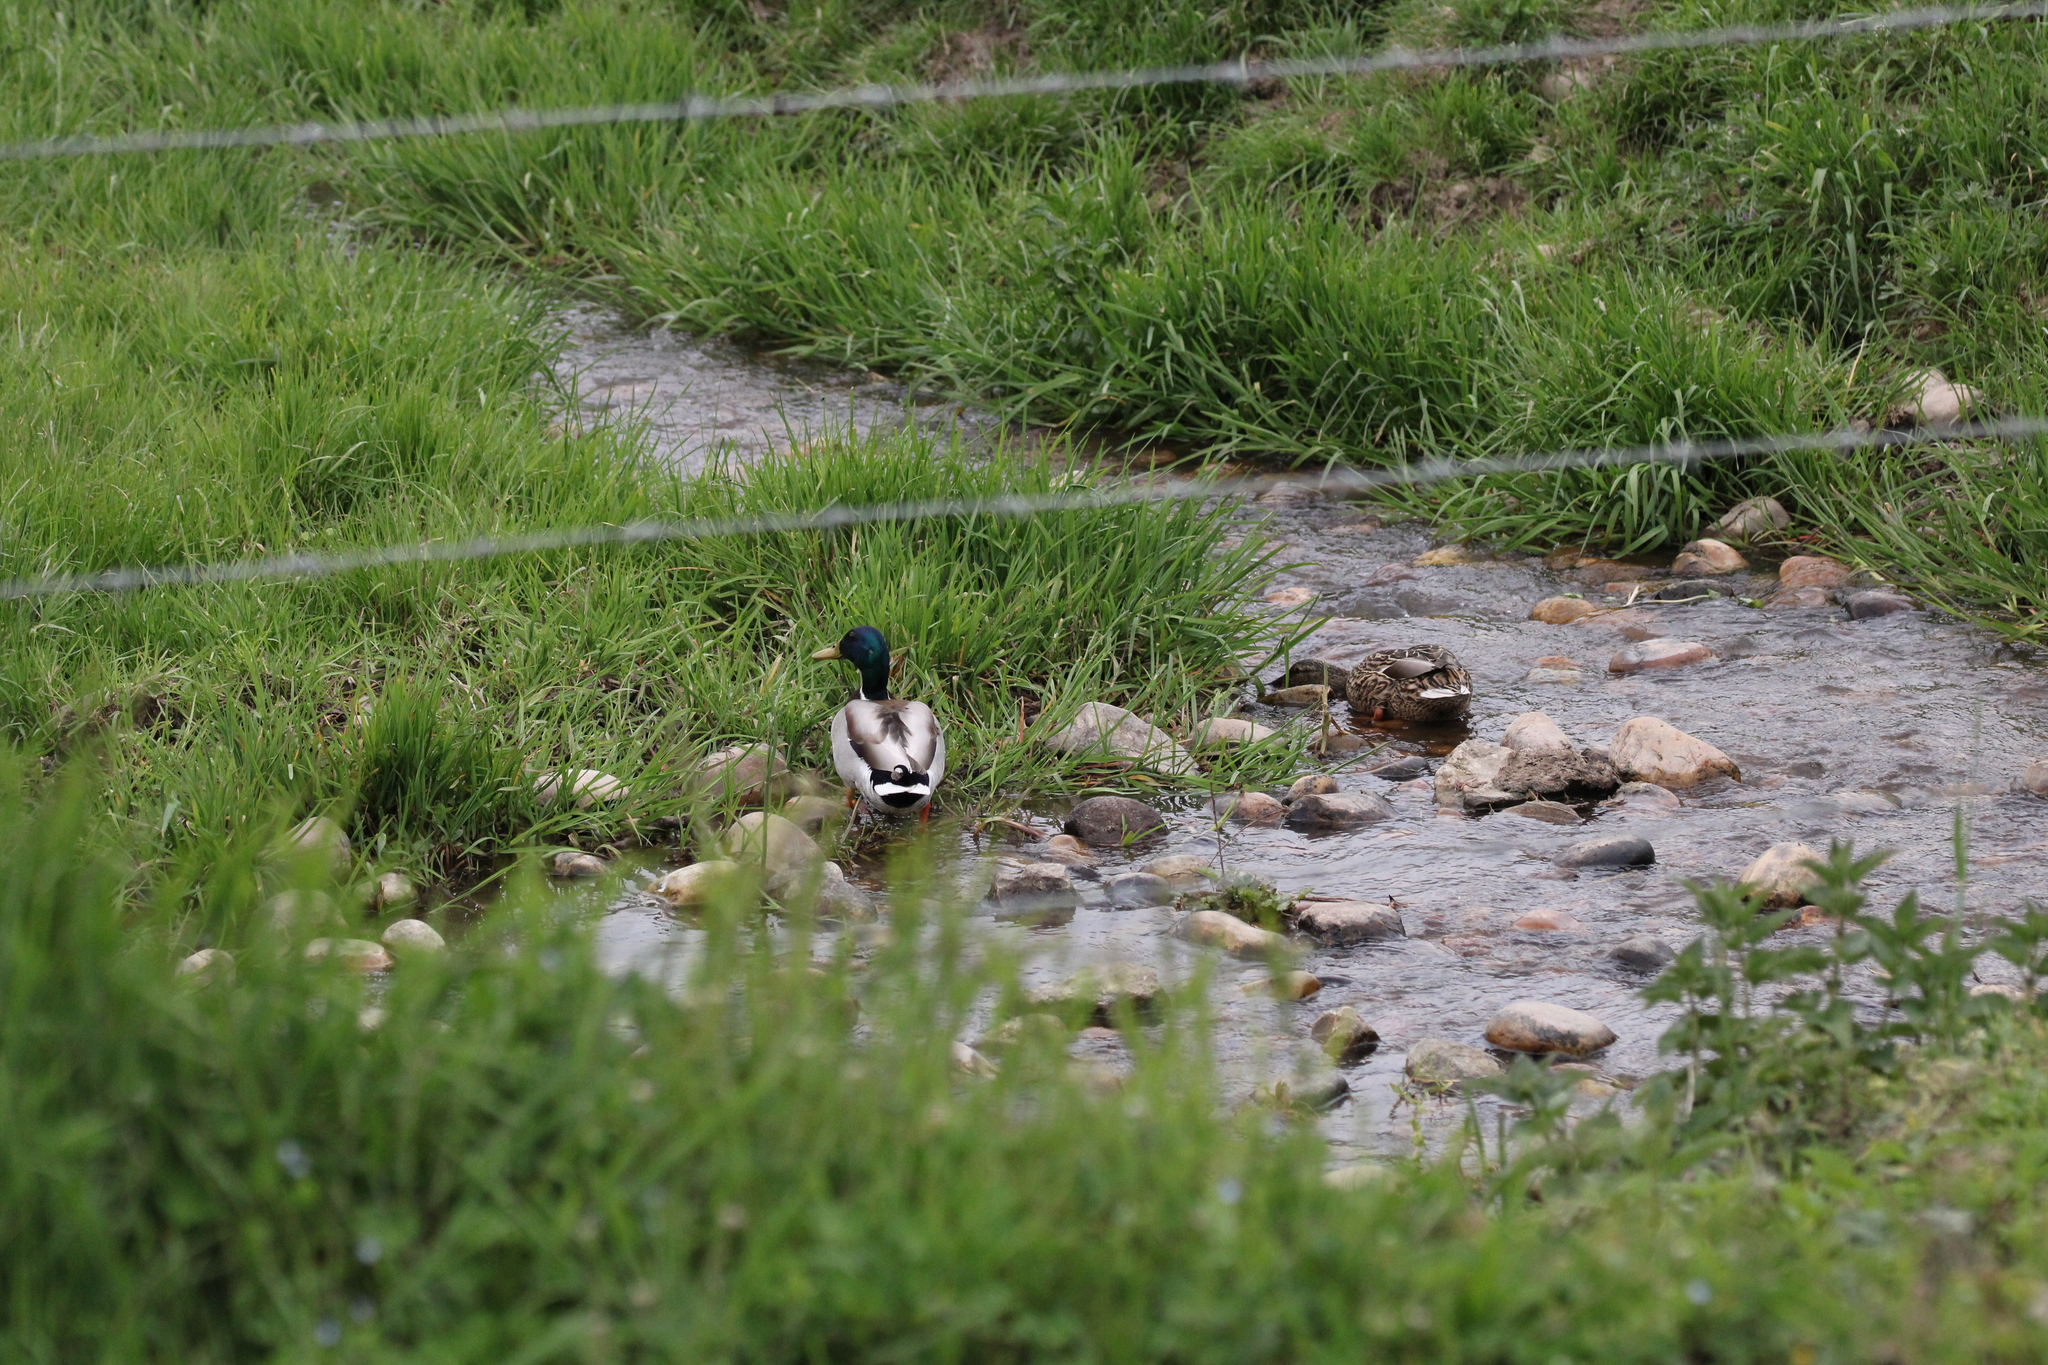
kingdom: Animalia
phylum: Chordata
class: Aves
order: Anseriformes
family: Anatidae
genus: Anas
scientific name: Anas platyrhynchos
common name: Mallard
